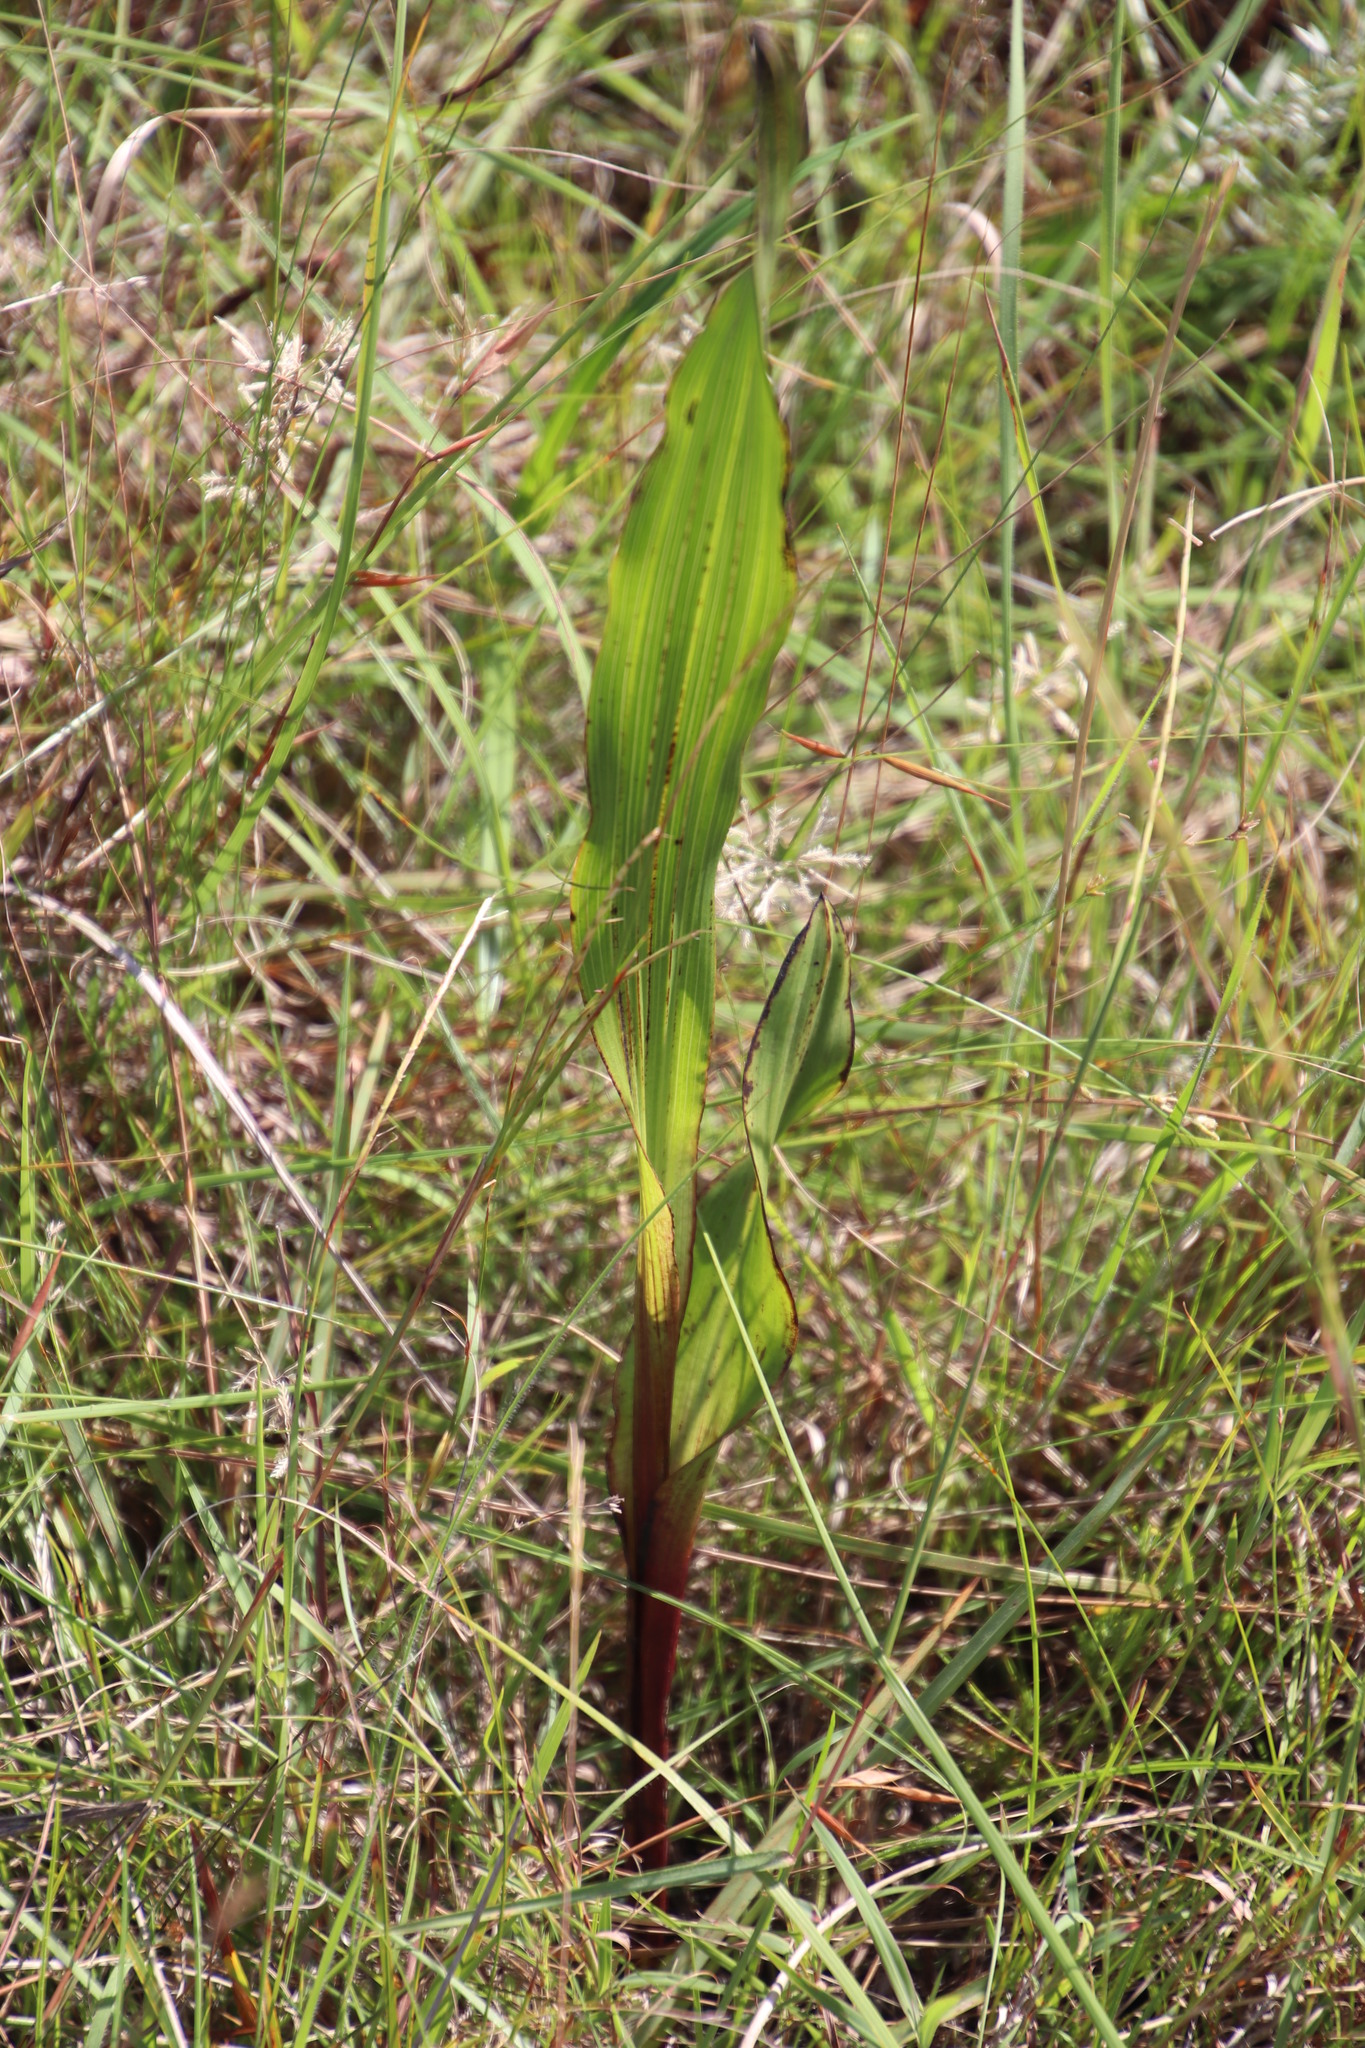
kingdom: Plantae
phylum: Tracheophyta
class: Liliopsida
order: Asparagales
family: Hypoxidaceae
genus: Hypoxis
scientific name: Hypoxis colchicifolia
